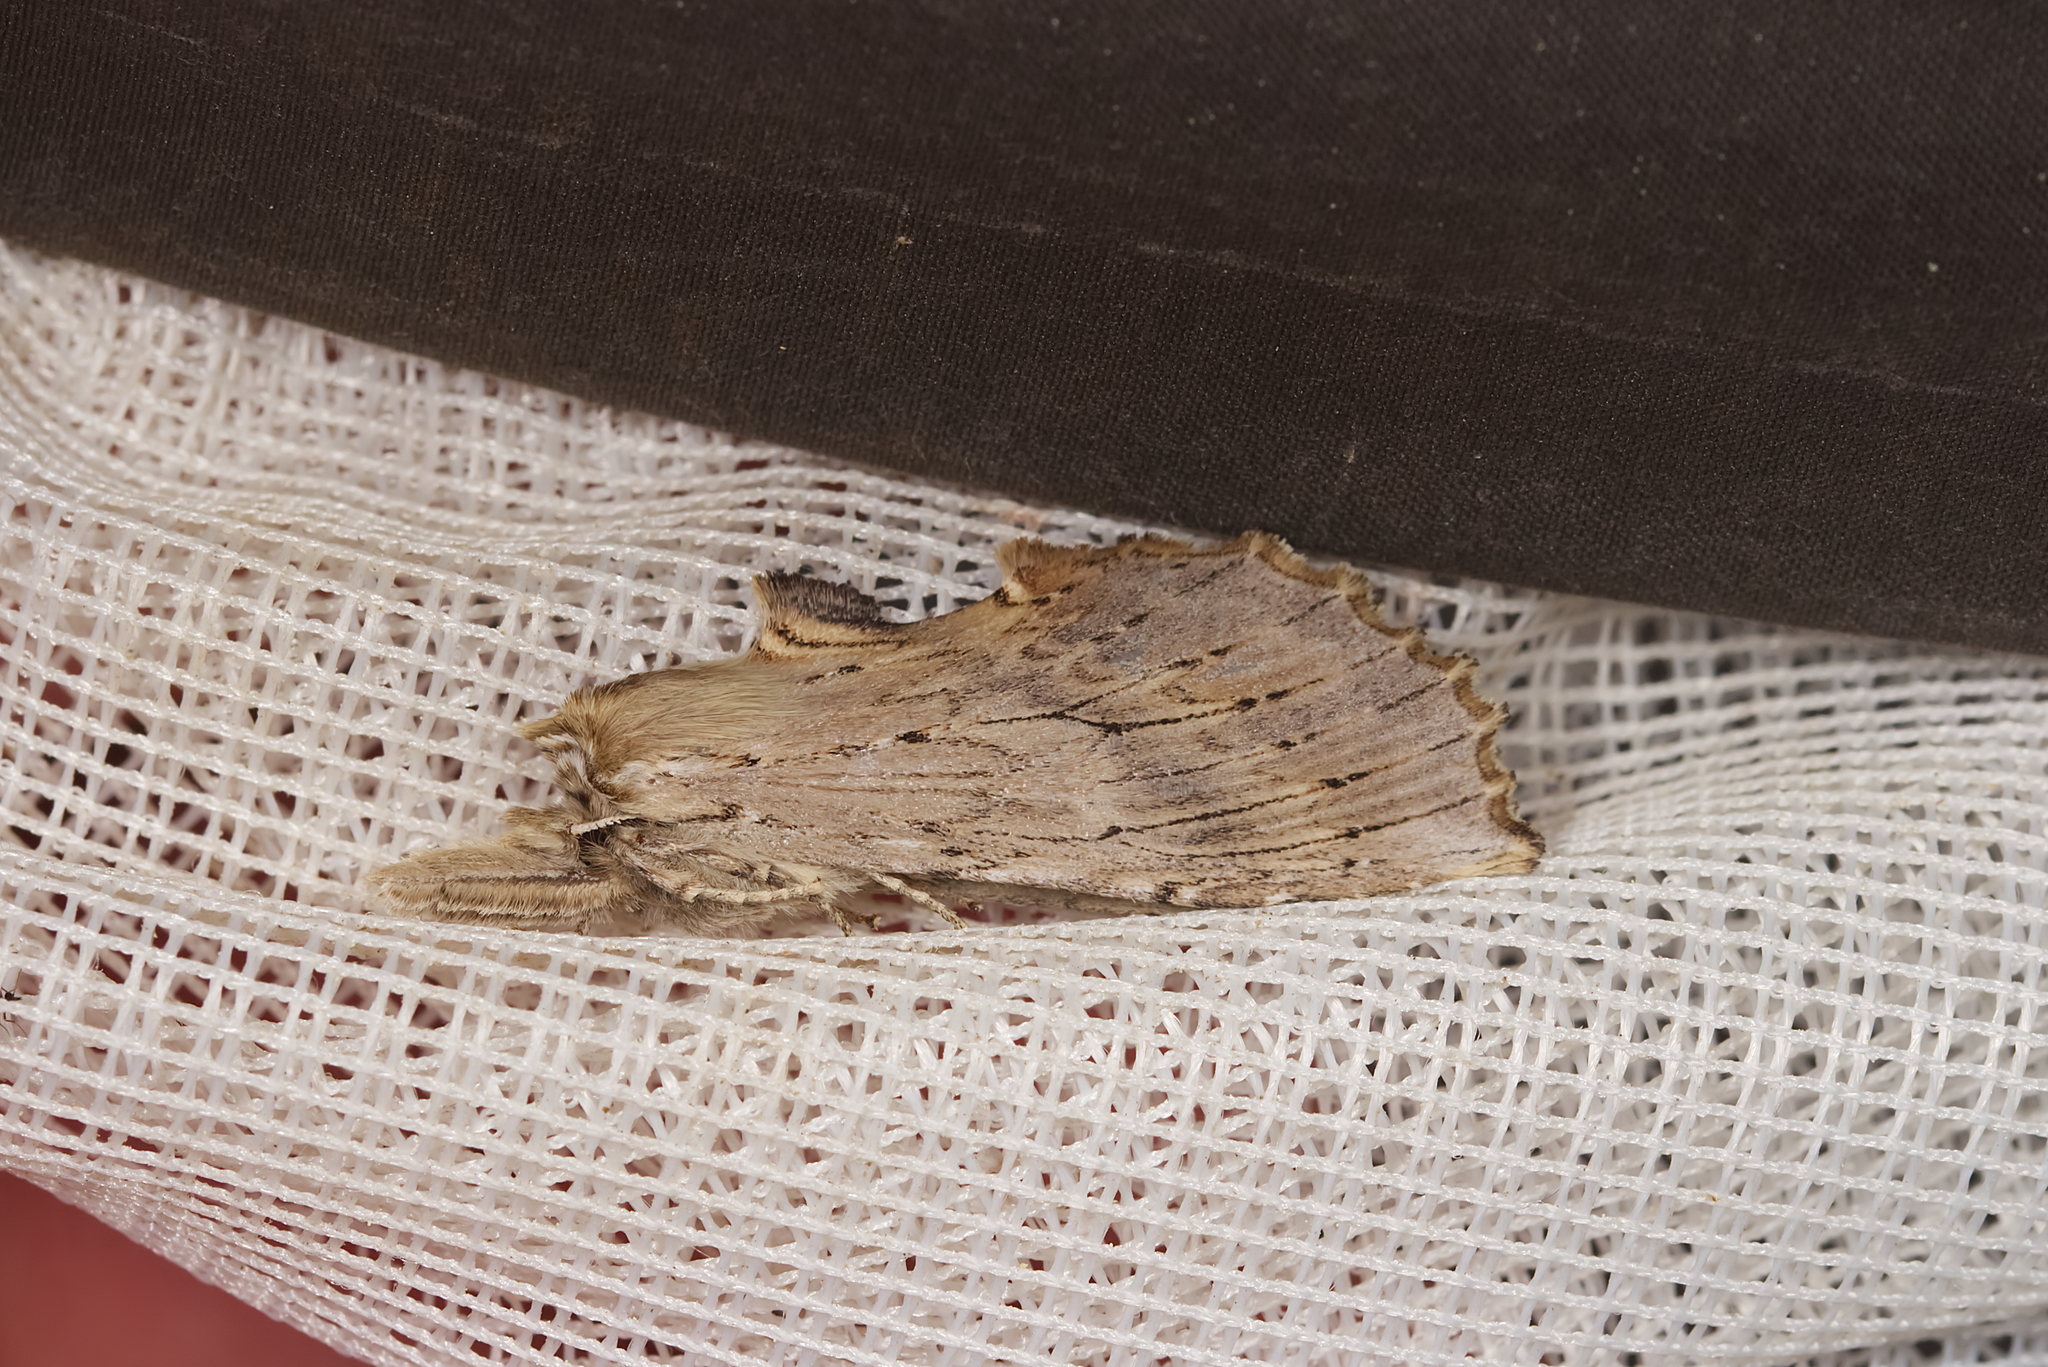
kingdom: Animalia
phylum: Arthropoda
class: Insecta
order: Lepidoptera
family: Notodontidae
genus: Pterostoma
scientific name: Pterostoma palpina
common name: Pale prominent
